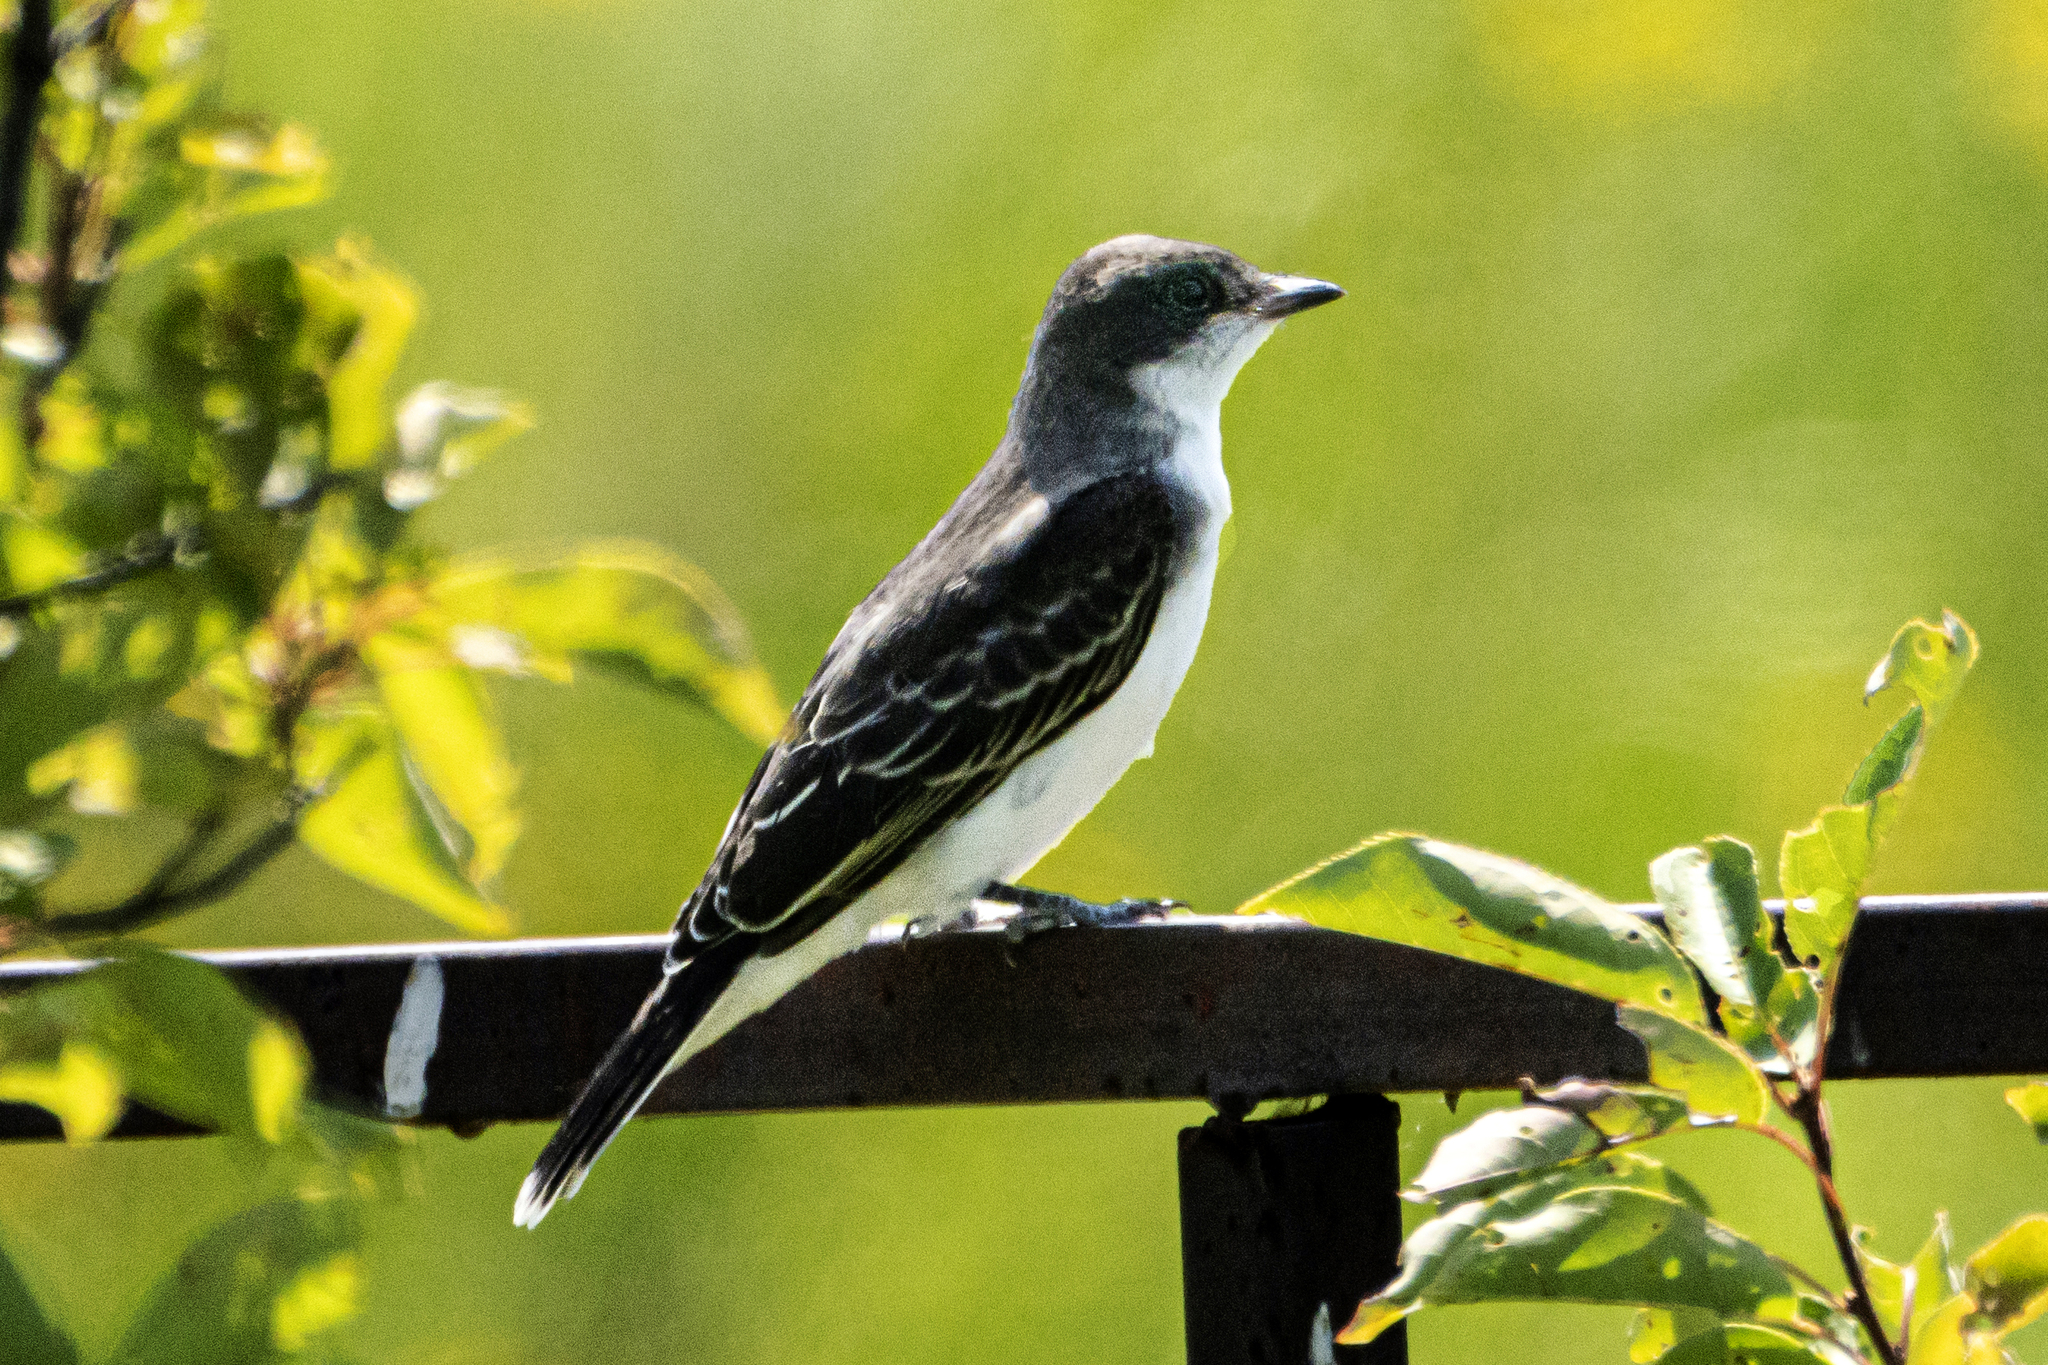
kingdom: Animalia
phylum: Chordata
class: Aves
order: Passeriformes
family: Tyrannidae
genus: Tyrannus
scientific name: Tyrannus tyrannus
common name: Eastern kingbird
